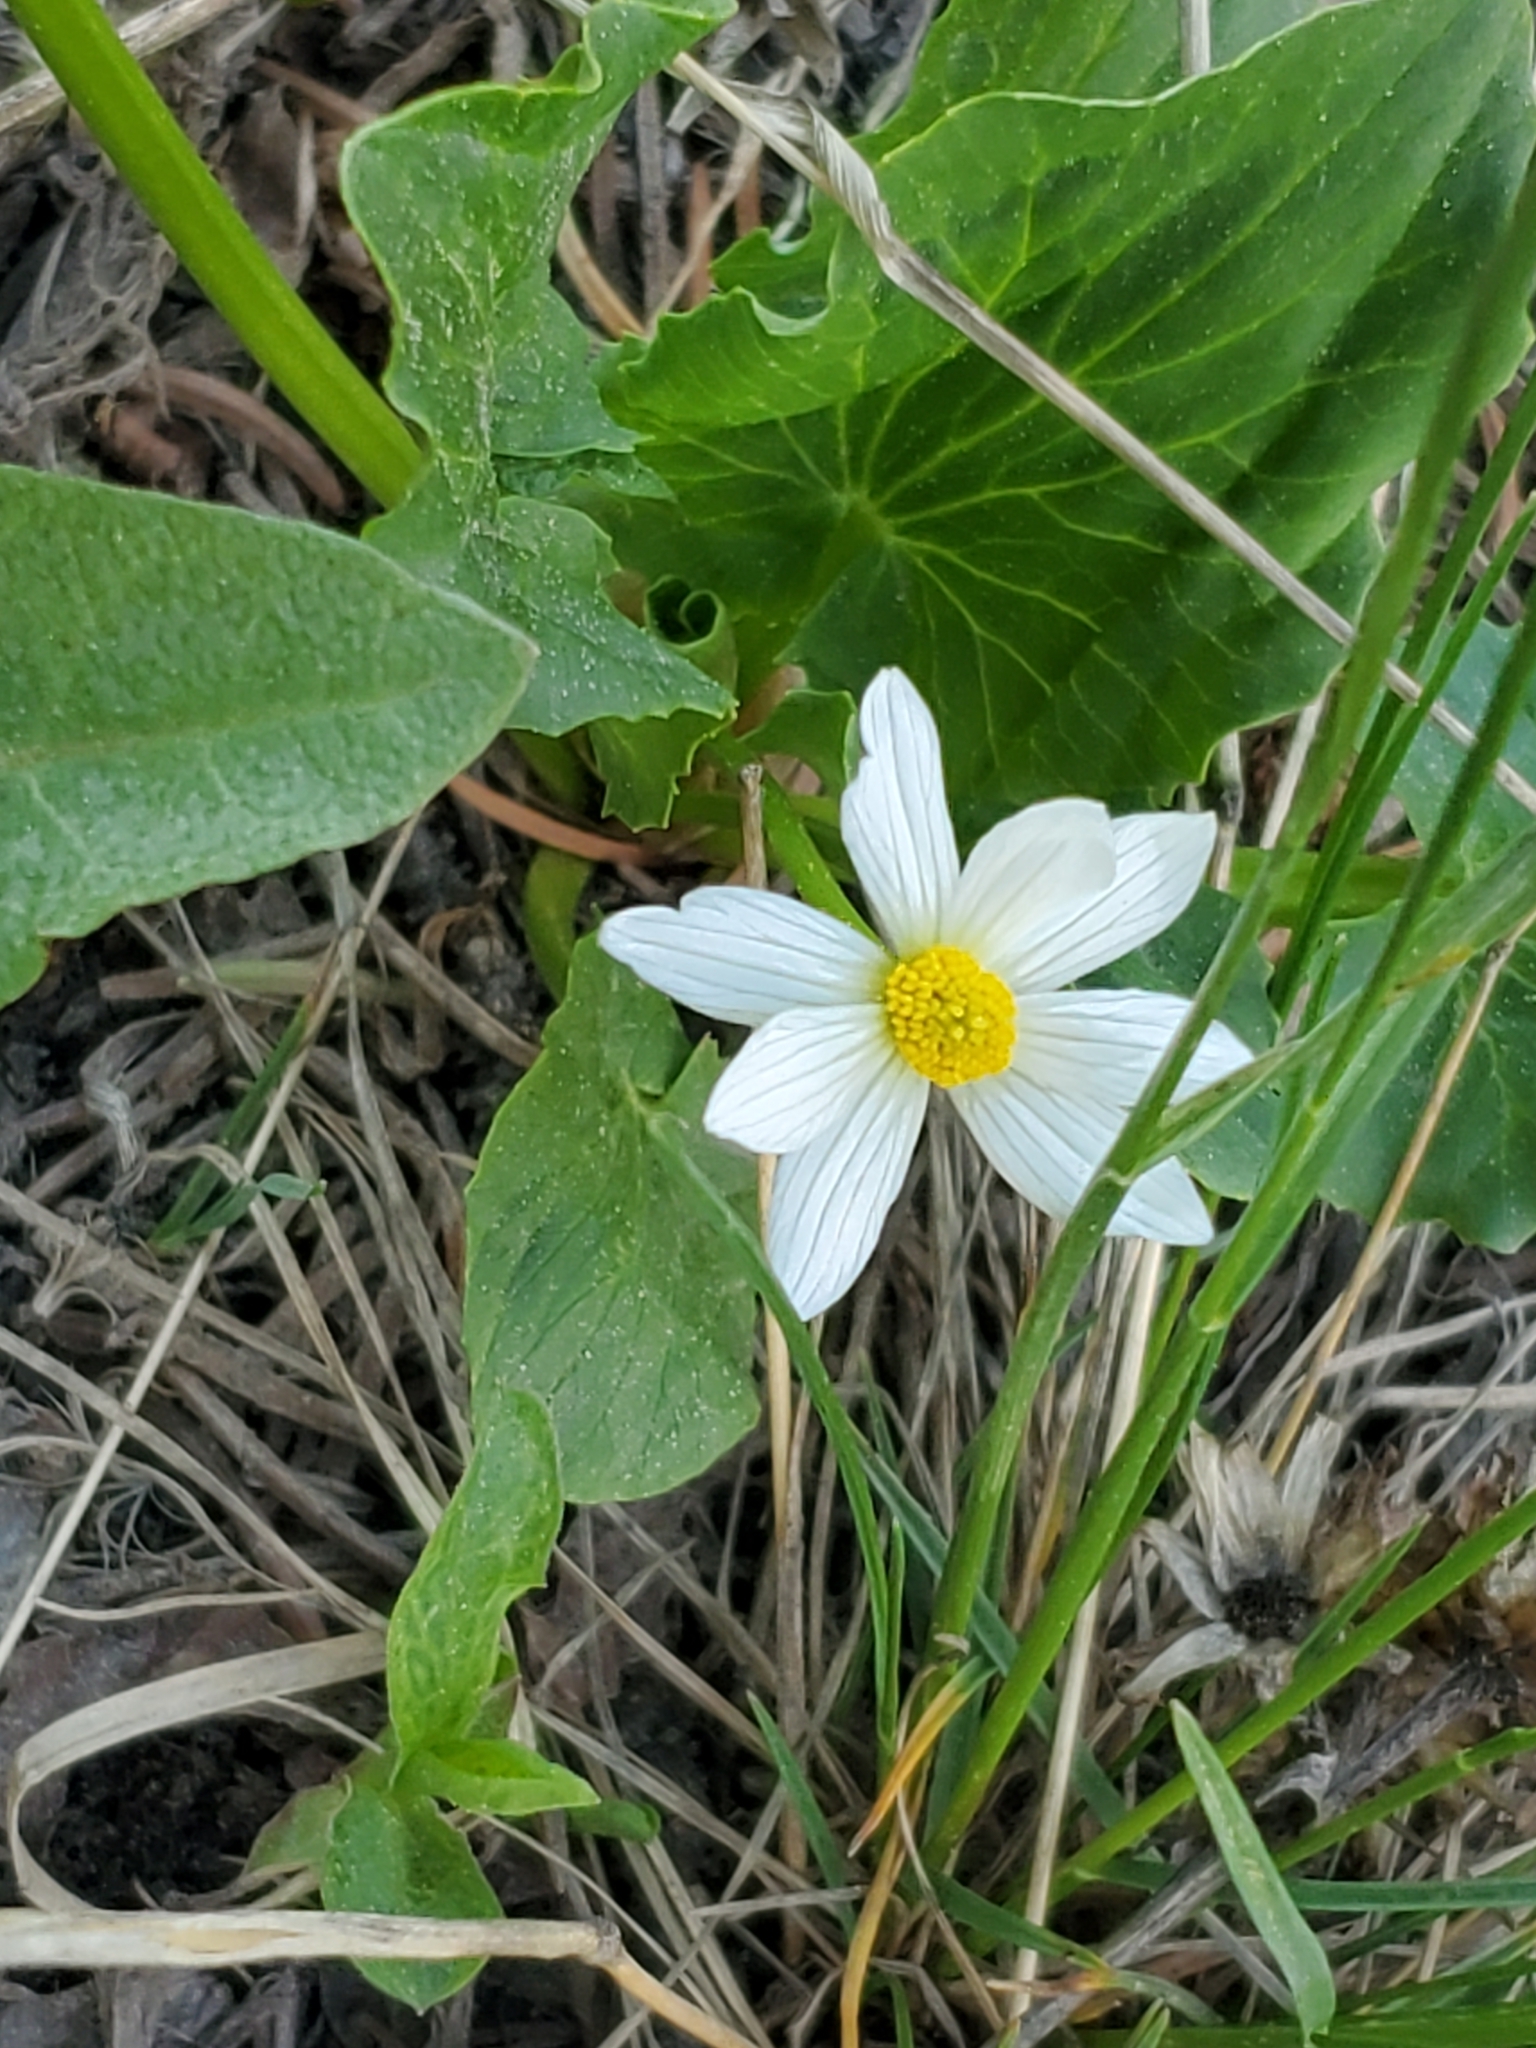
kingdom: Plantae
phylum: Tracheophyta
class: Magnoliopsida
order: Ranunculales
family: Ranunculaceae
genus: Caltha
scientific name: Caltha leptosepala
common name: Elkslip
